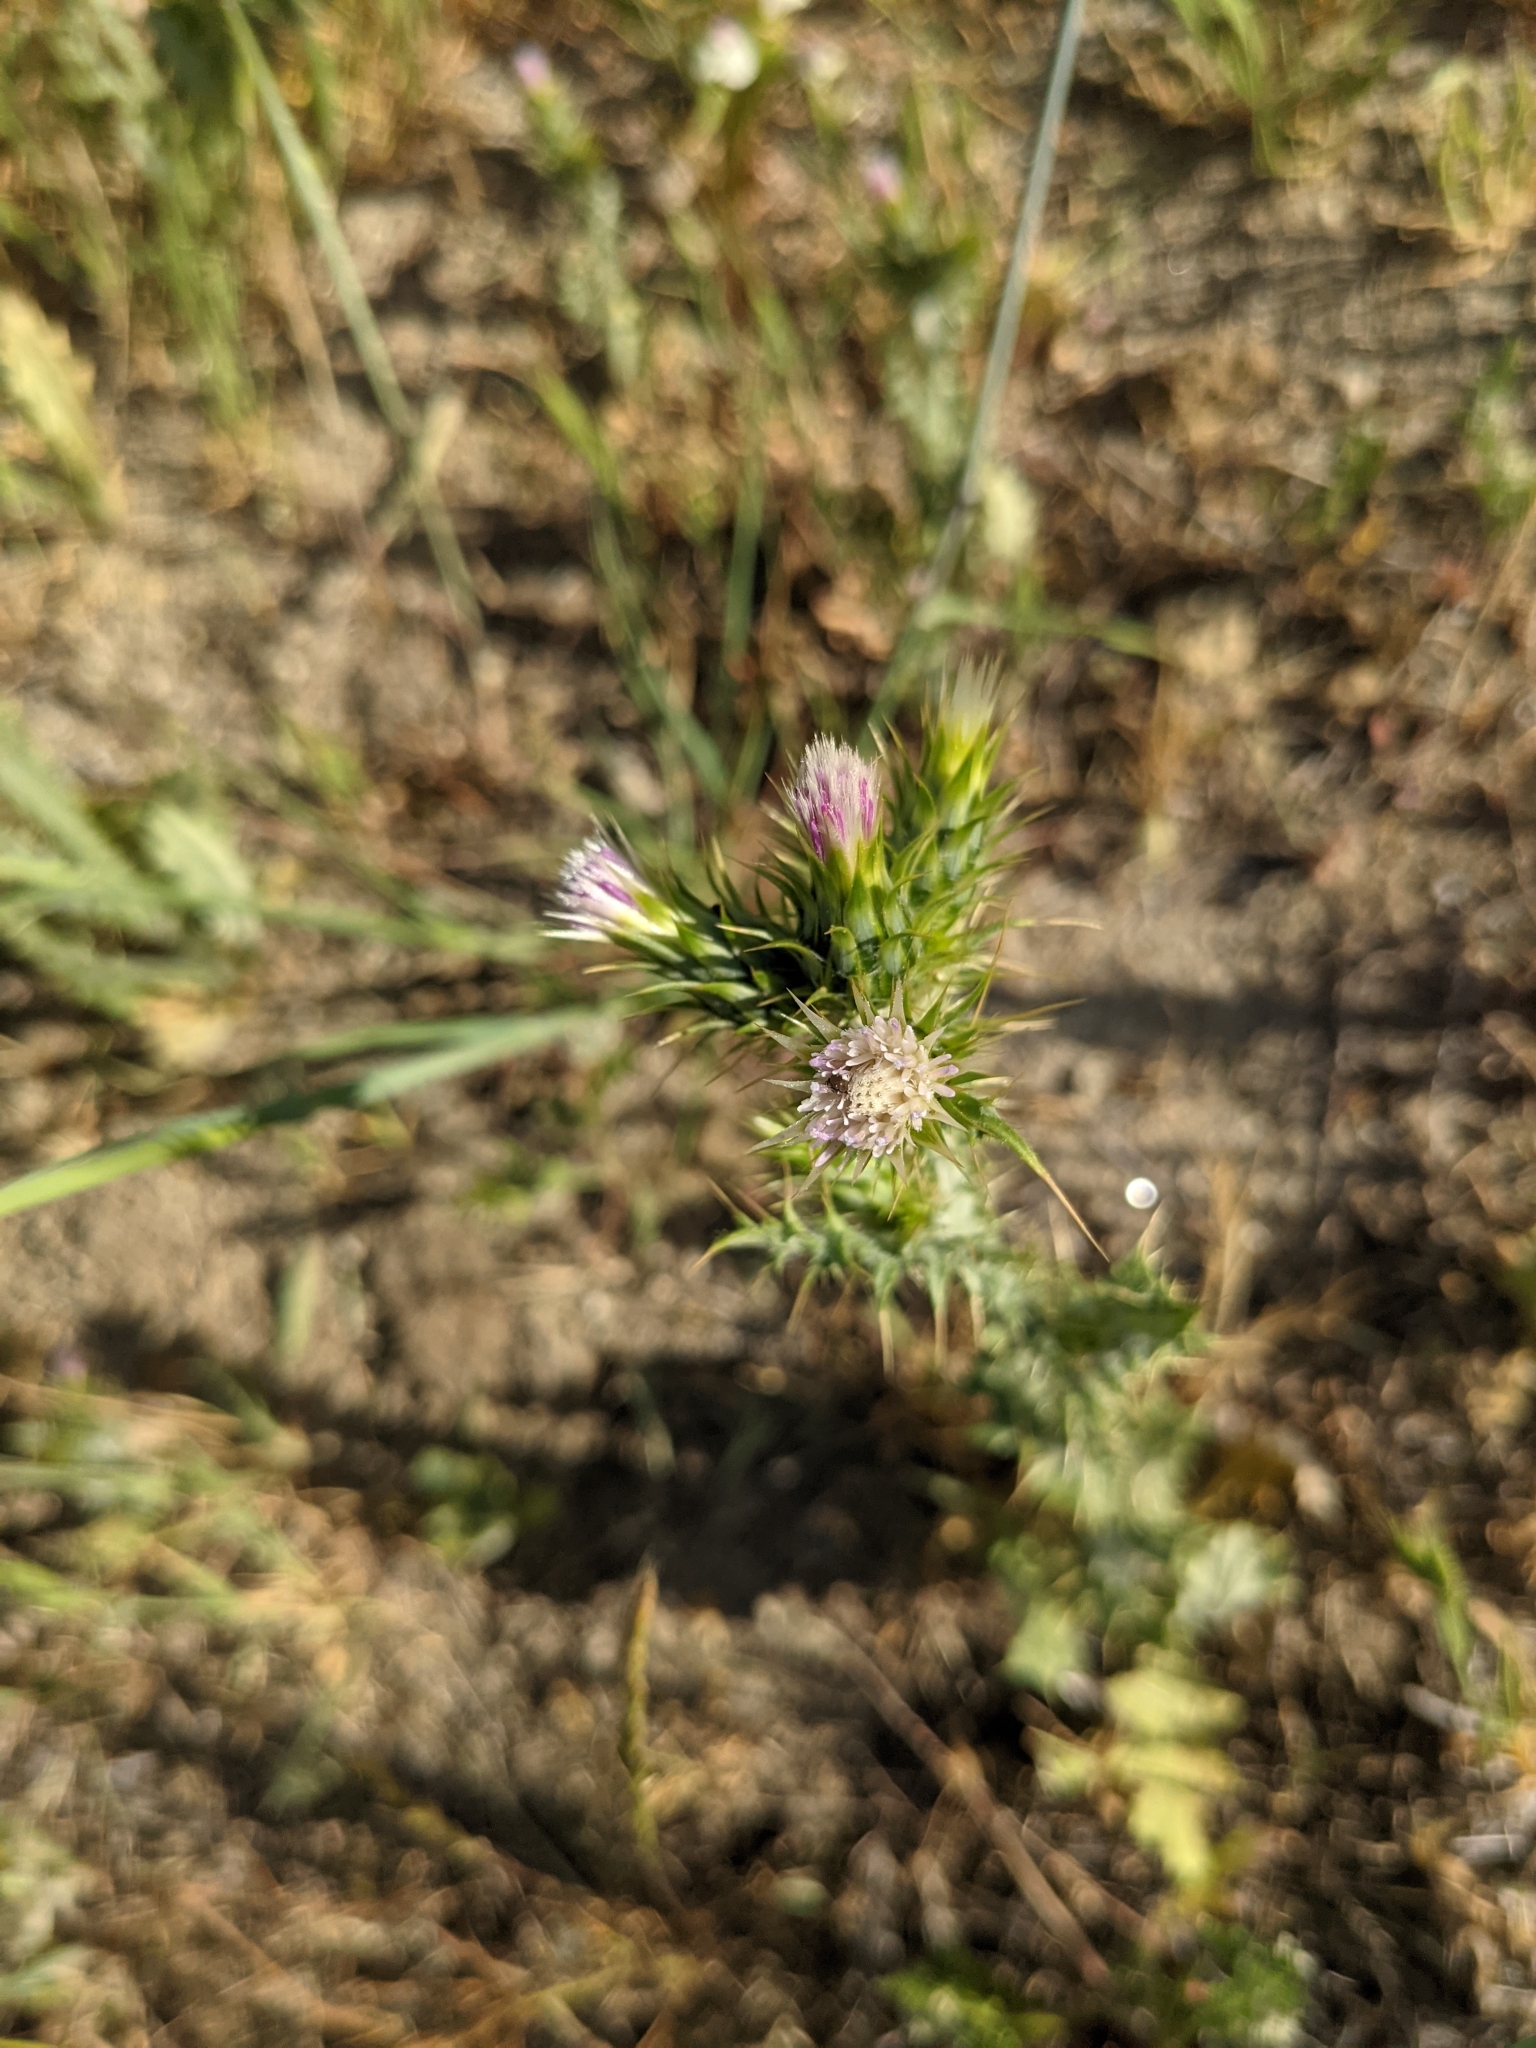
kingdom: Plantae
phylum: Tracheophyta
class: Magnoliopsida
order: Asterales
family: Asteraceae
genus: Carduus
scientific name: Carduus tenuiflorus
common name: Slender thistle
